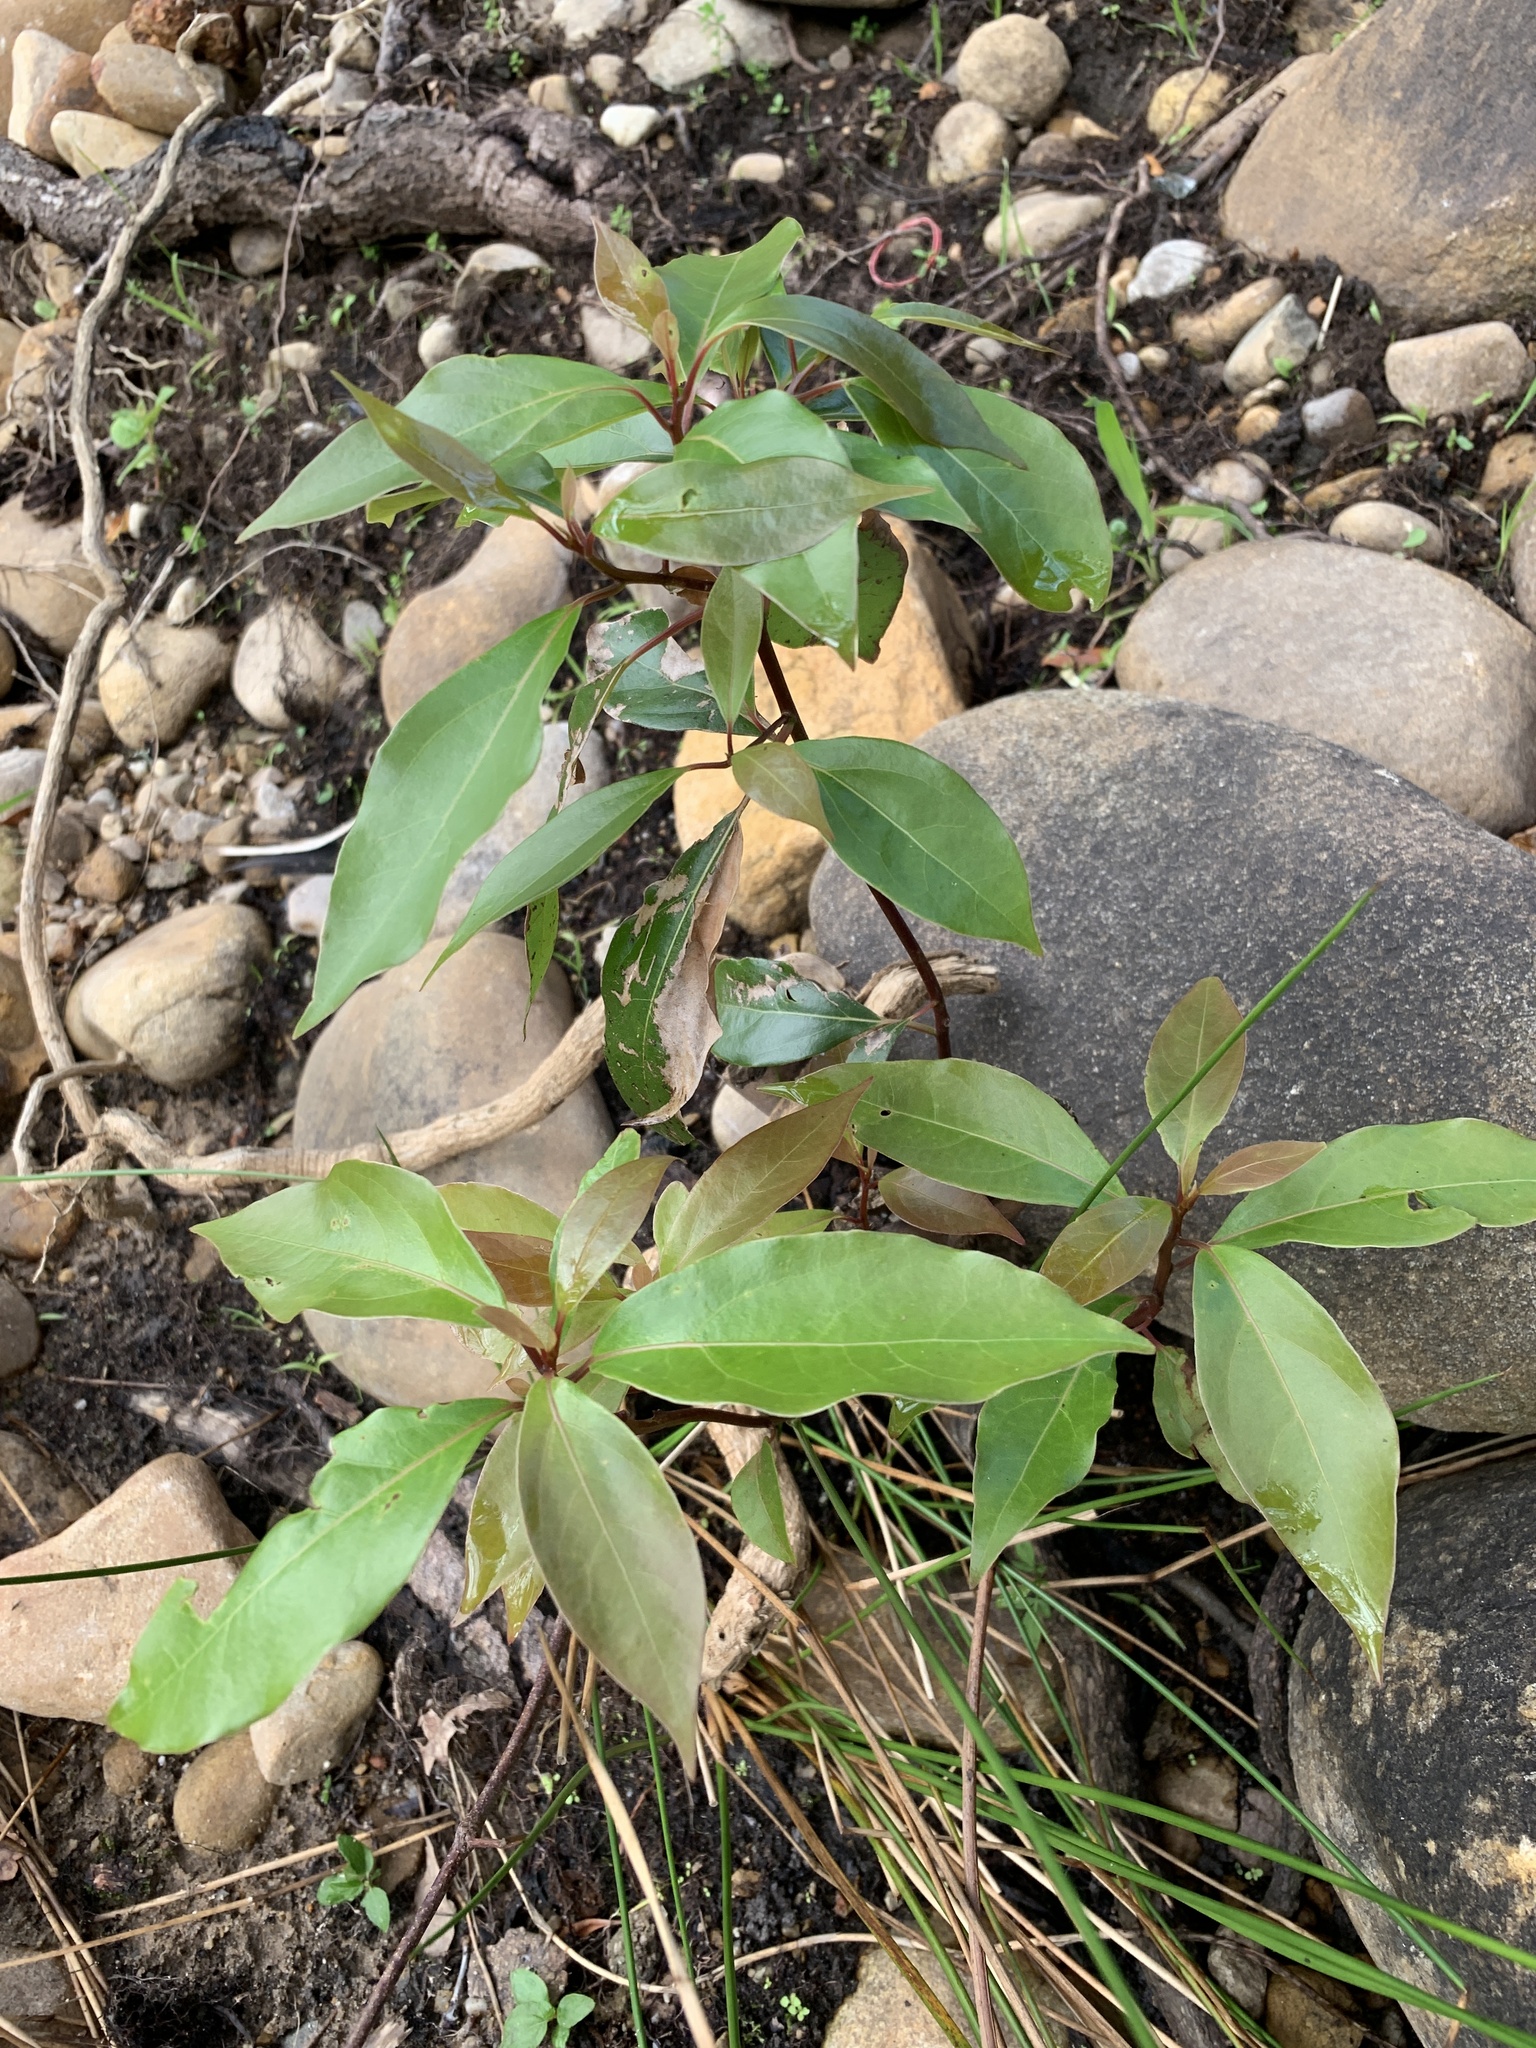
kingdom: Plantae
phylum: Tracheophyta
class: Magnoliopsida
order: Laurales
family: Lauraceae
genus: Cinnamomum
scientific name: Cinnamomum camphora
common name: Camphortree
